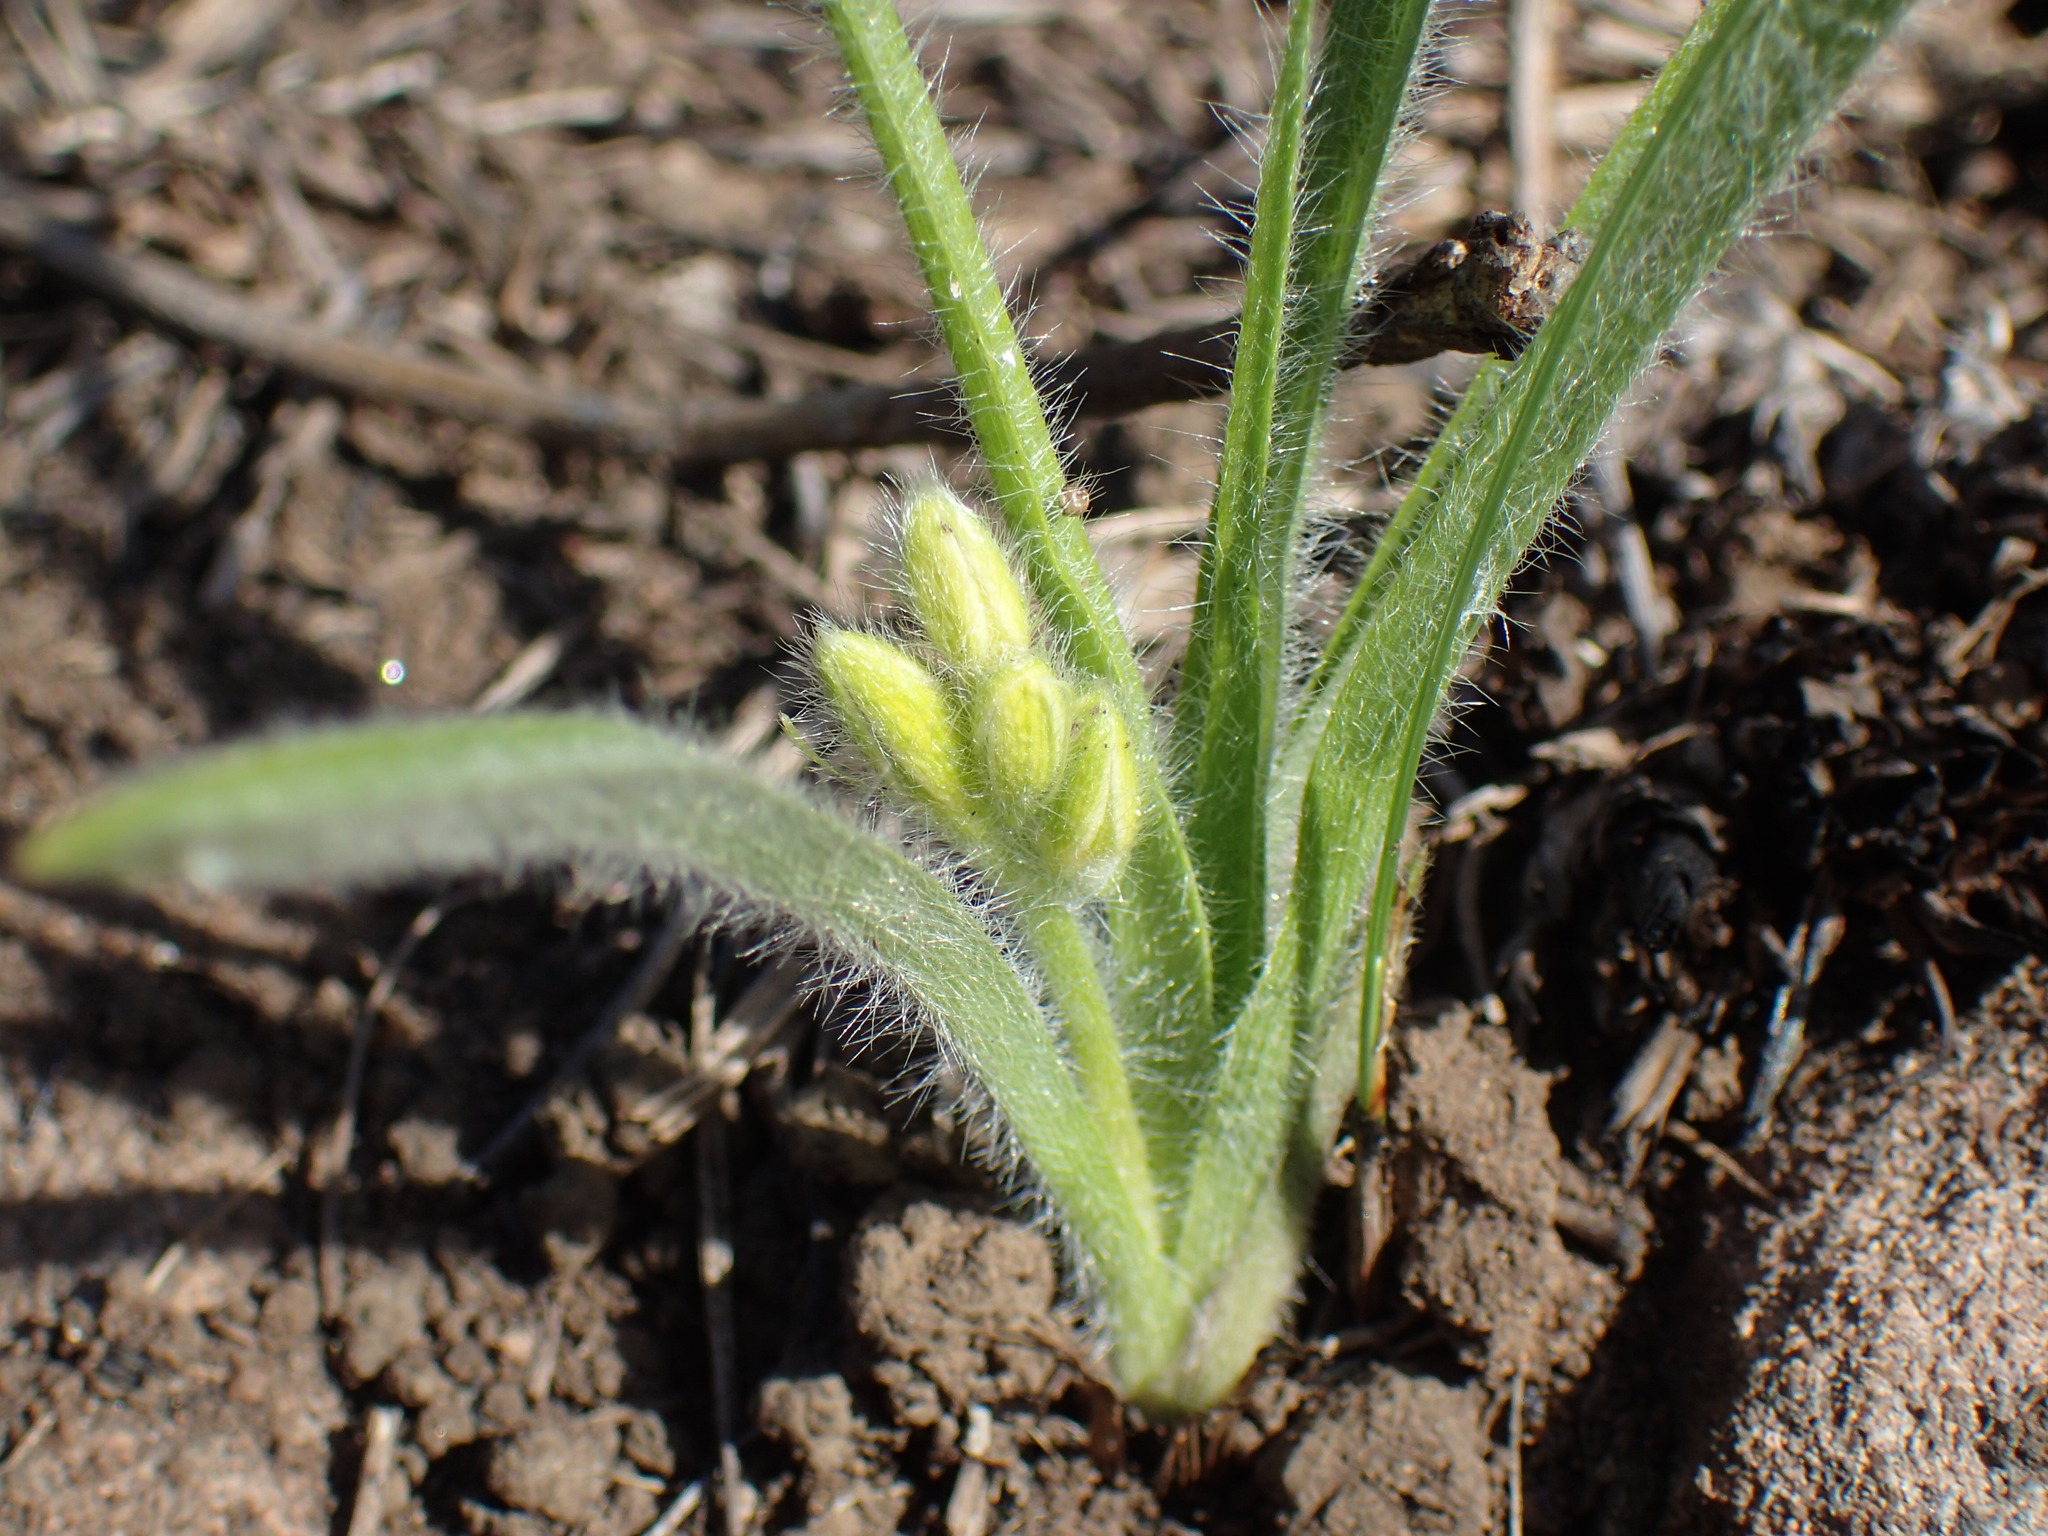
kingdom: Plantae
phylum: Tracheophyta
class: Liliopsida
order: Asparagales
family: Hypoxidaceae
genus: Hypoxis
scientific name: Hypoxis argentea
